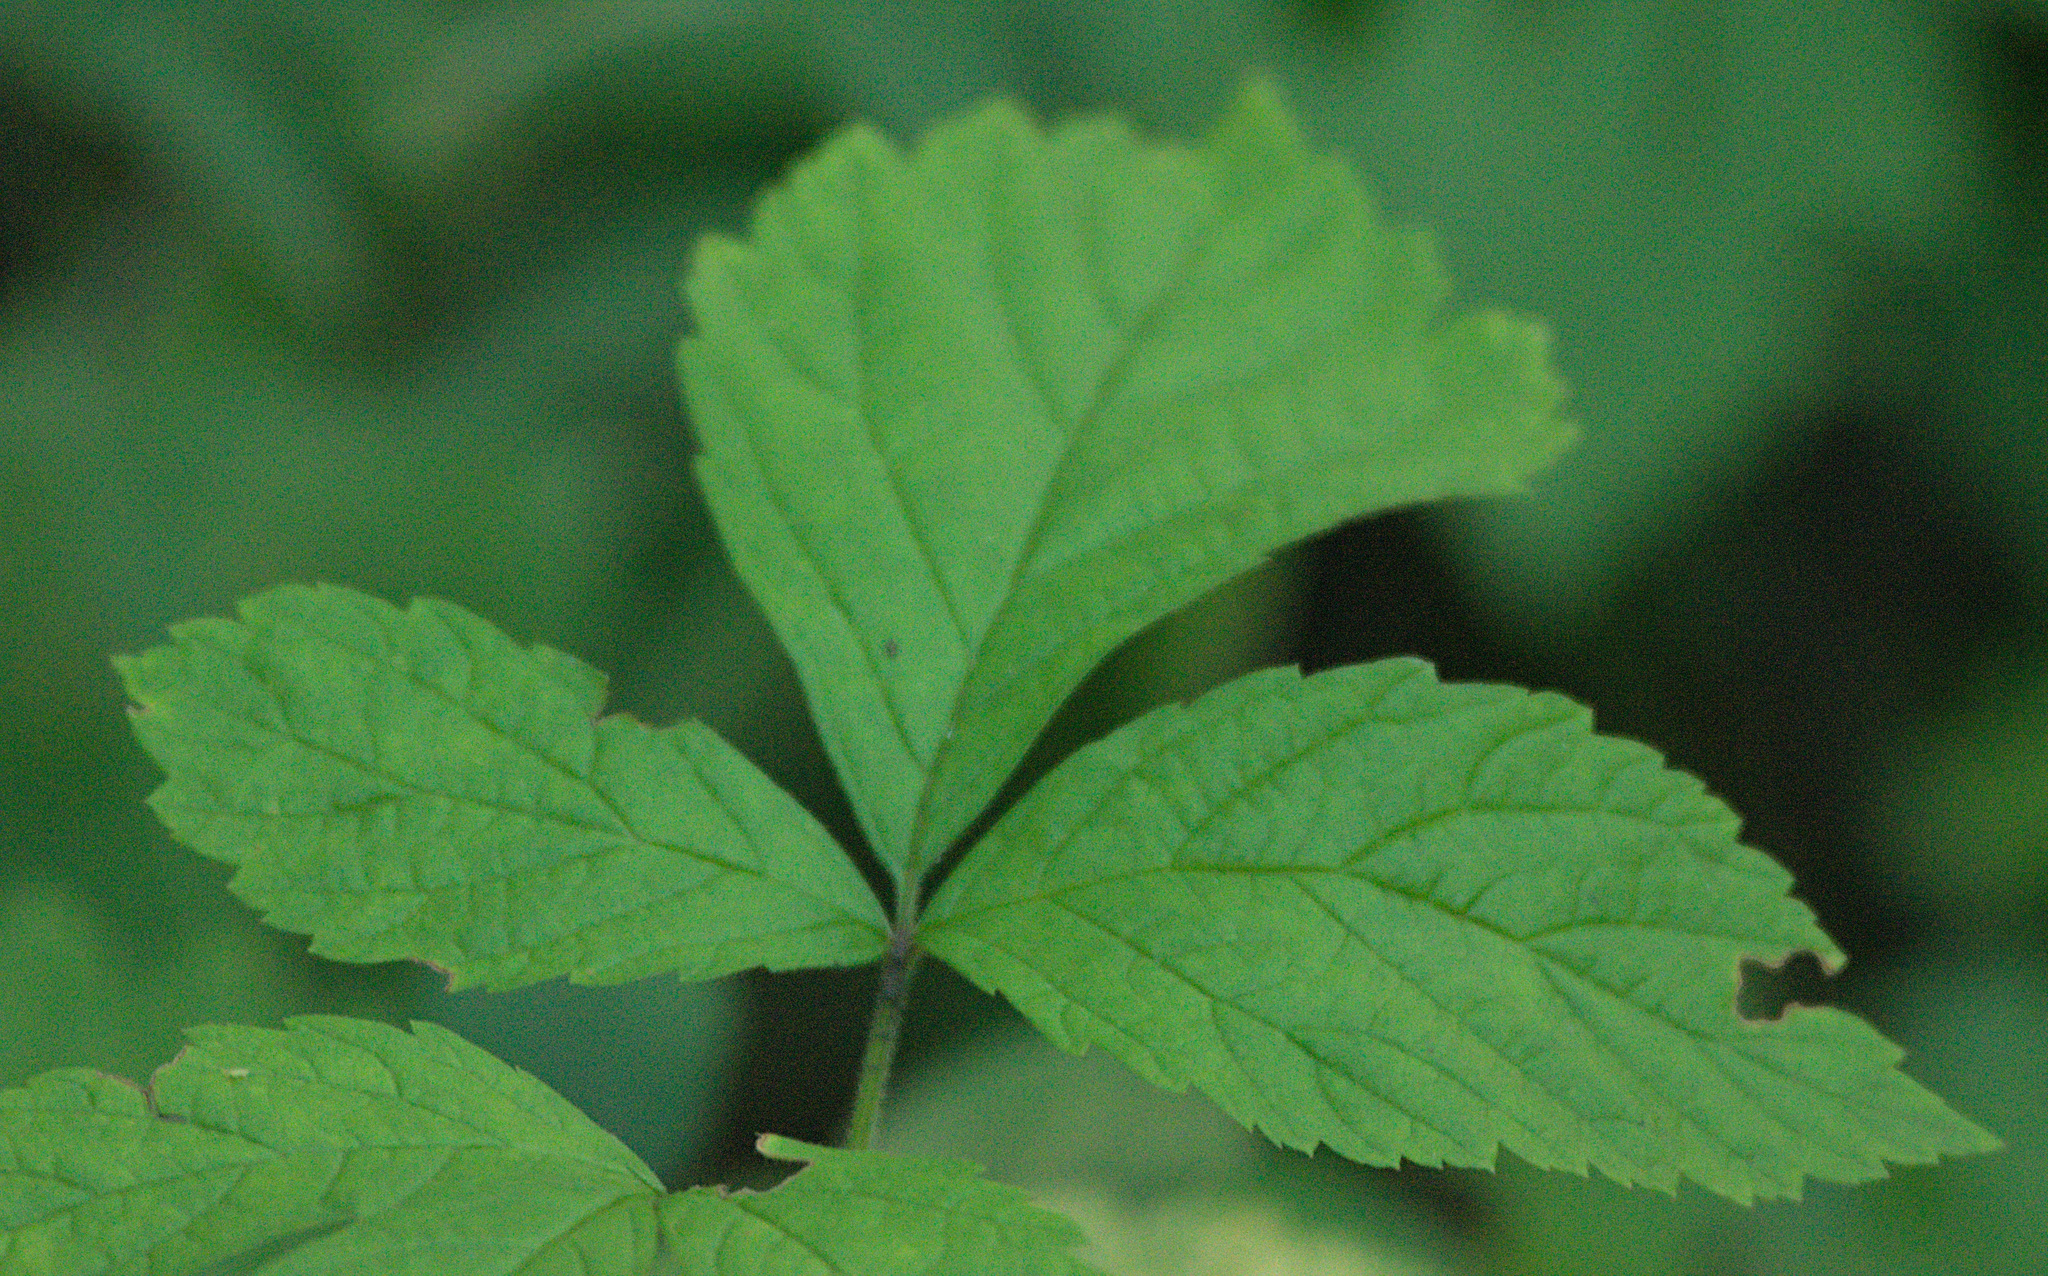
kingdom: Plantae
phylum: Tracheophyta
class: Magnoliopsida
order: Rosales
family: Rosaceae
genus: Rubus
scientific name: Rubus saxatilis
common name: Stone bramble
